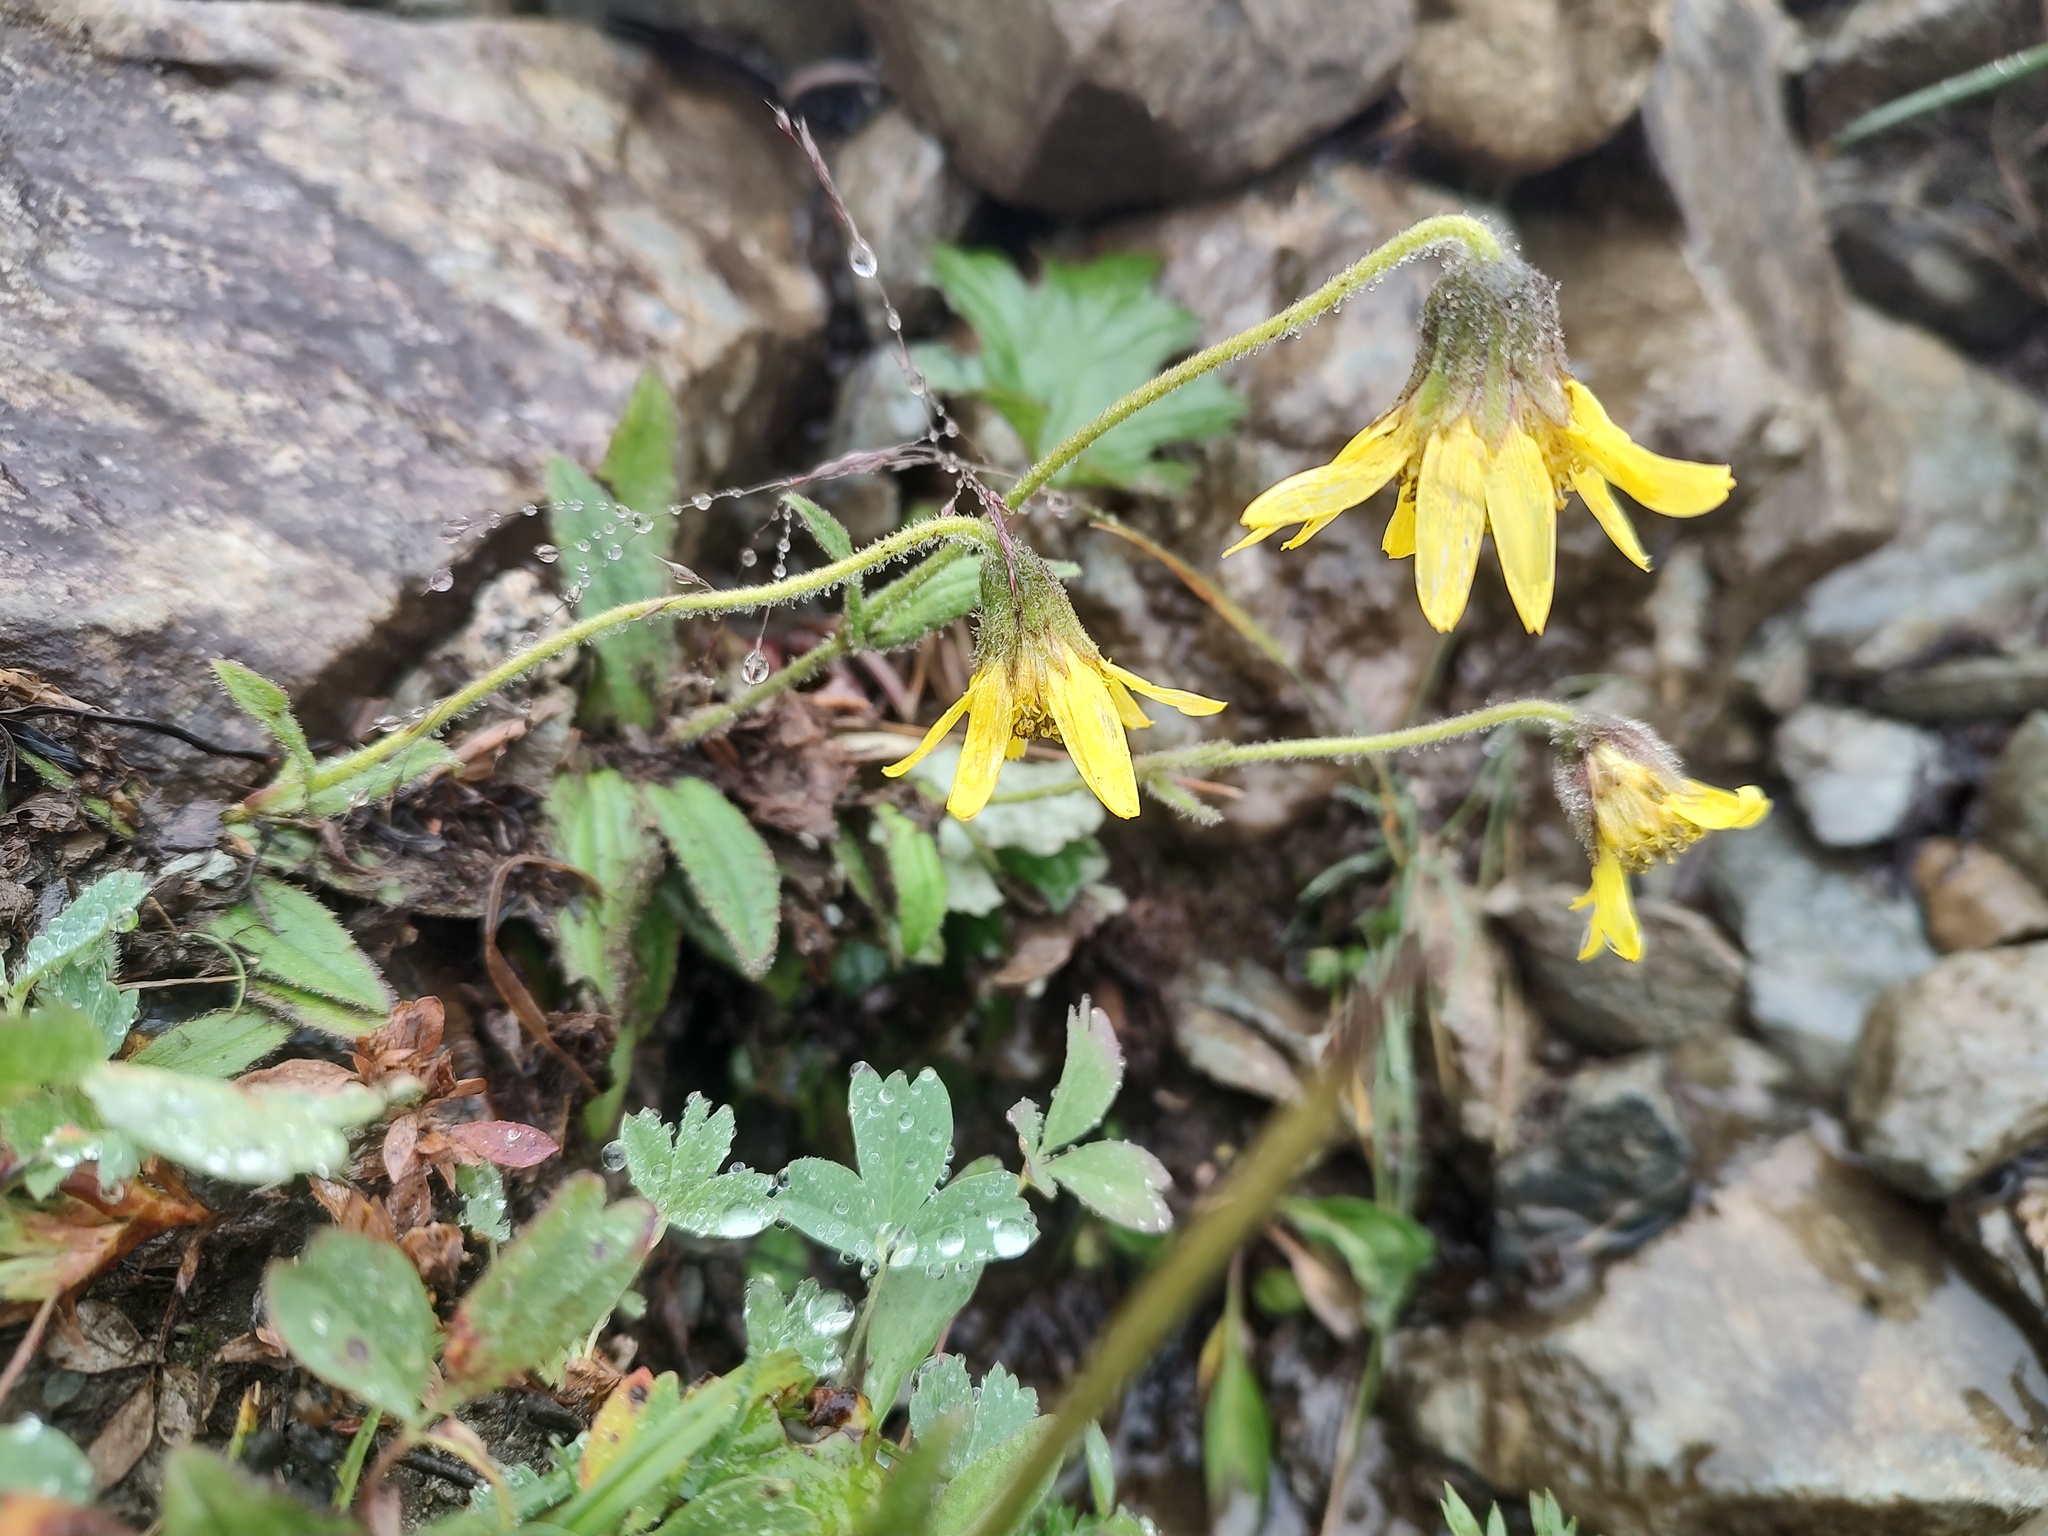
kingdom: Plantae
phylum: Tracheophyta
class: Magnoliopsida
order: Asterales
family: Asteraceae
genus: Arnica
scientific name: Arnica lessingii
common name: Nodding arnica
